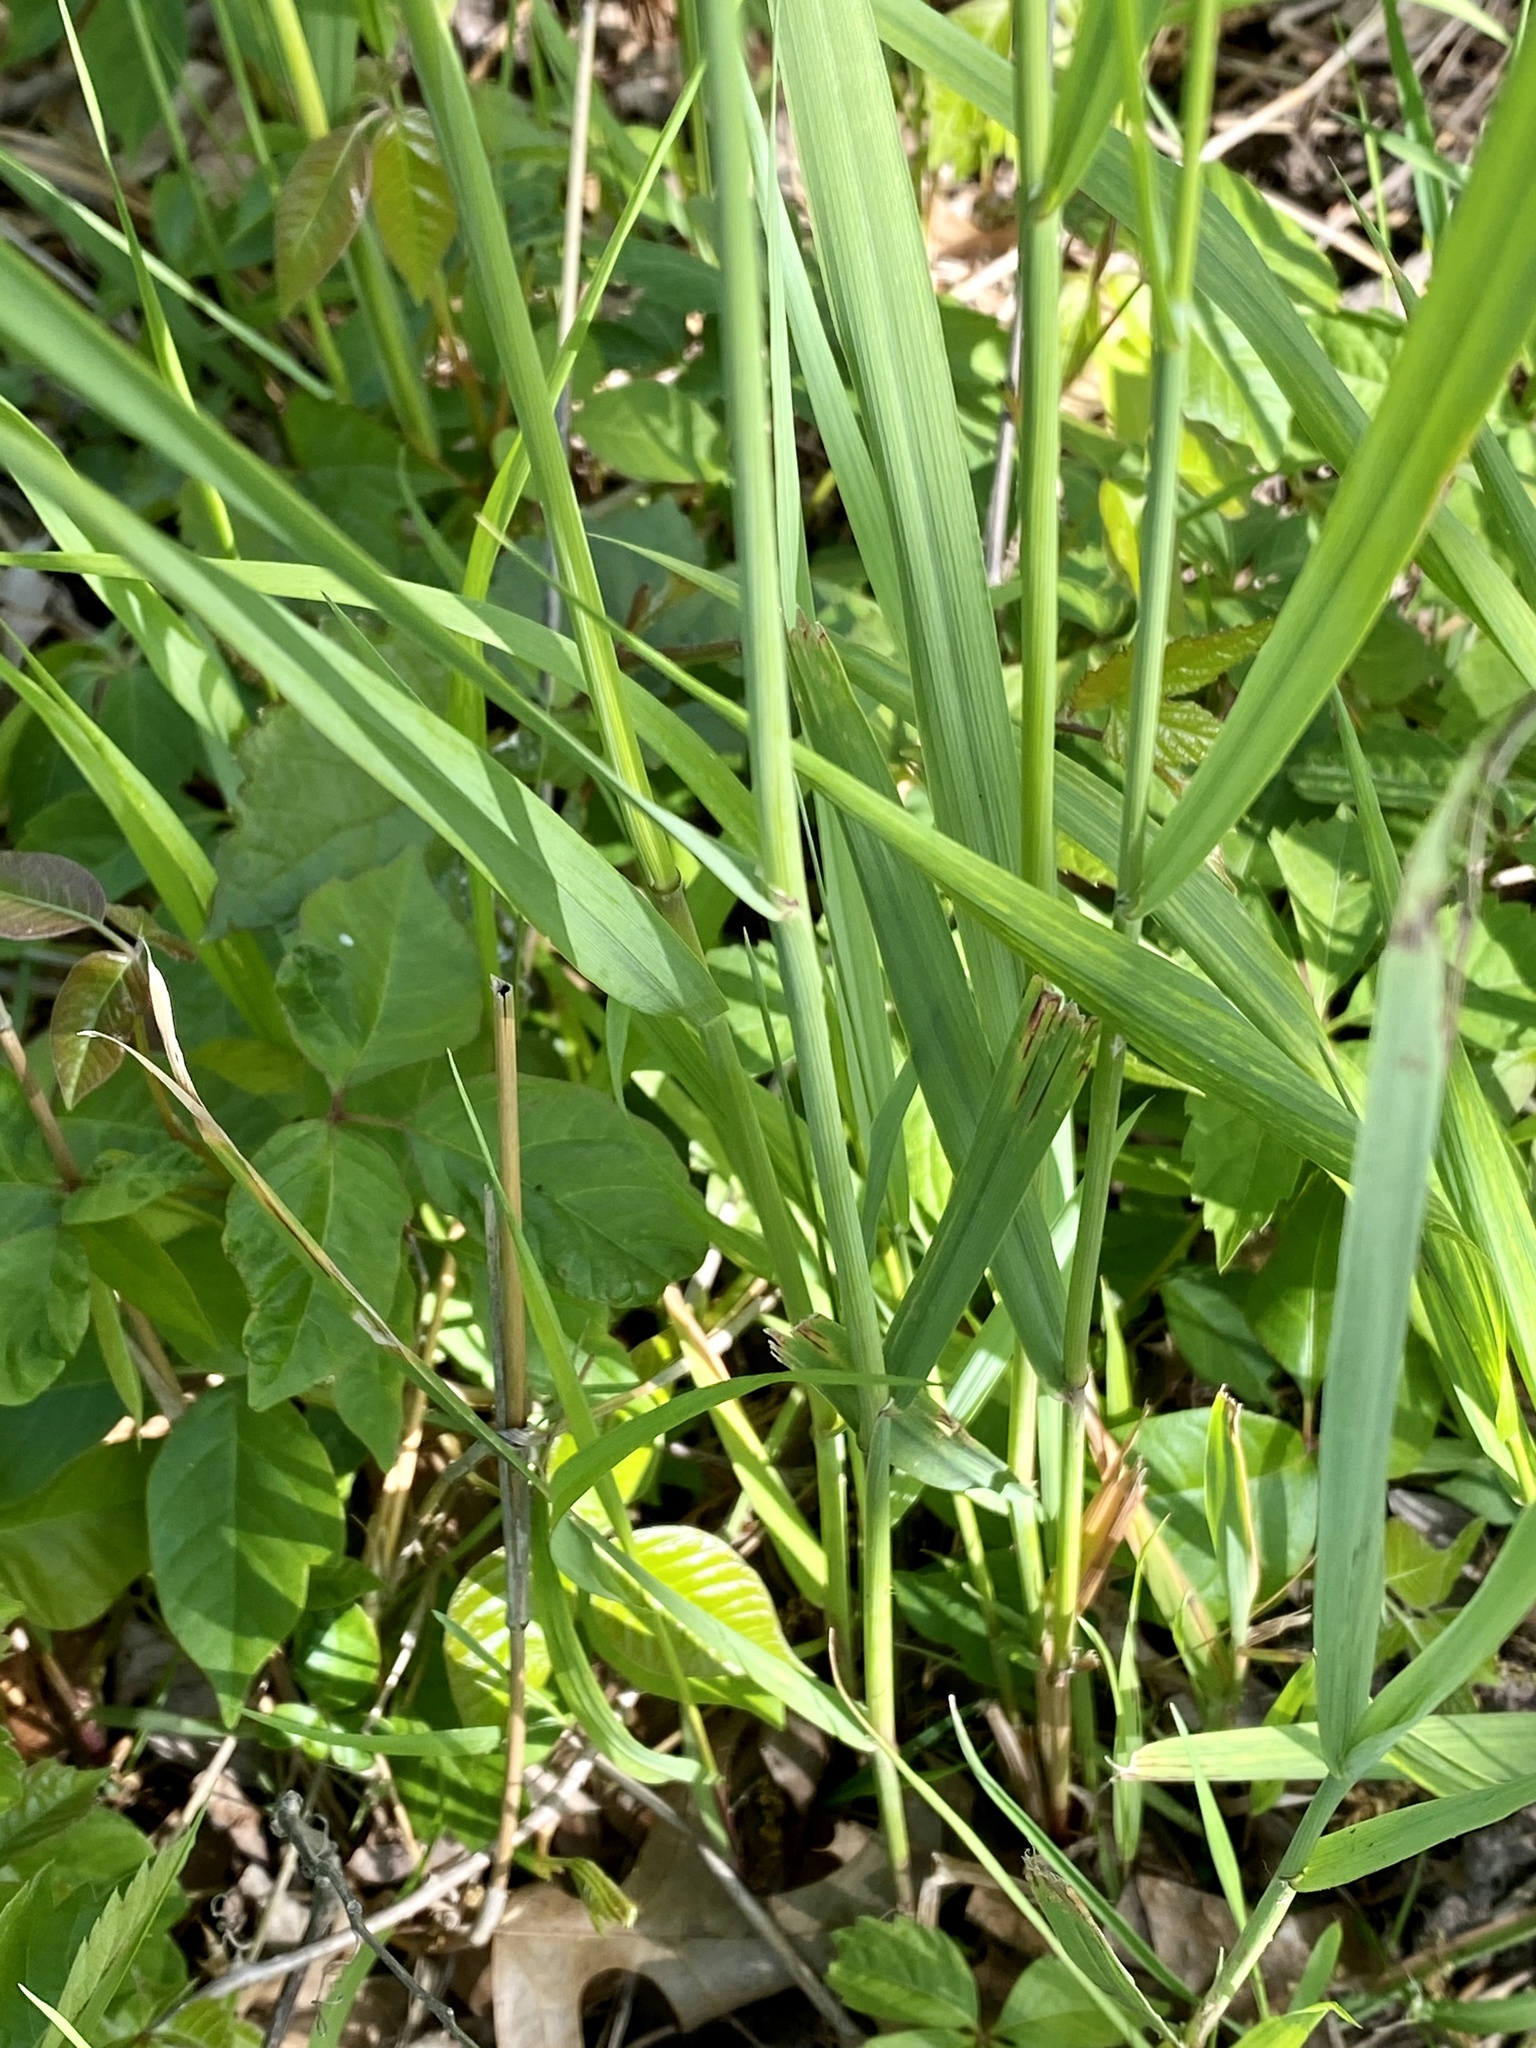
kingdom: Plantae
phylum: Tracheophyta
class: Liliopsida
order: Poales
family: Poaceae
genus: Phalaris
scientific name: Phalaris arundinacea
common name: Reed canary-grass
